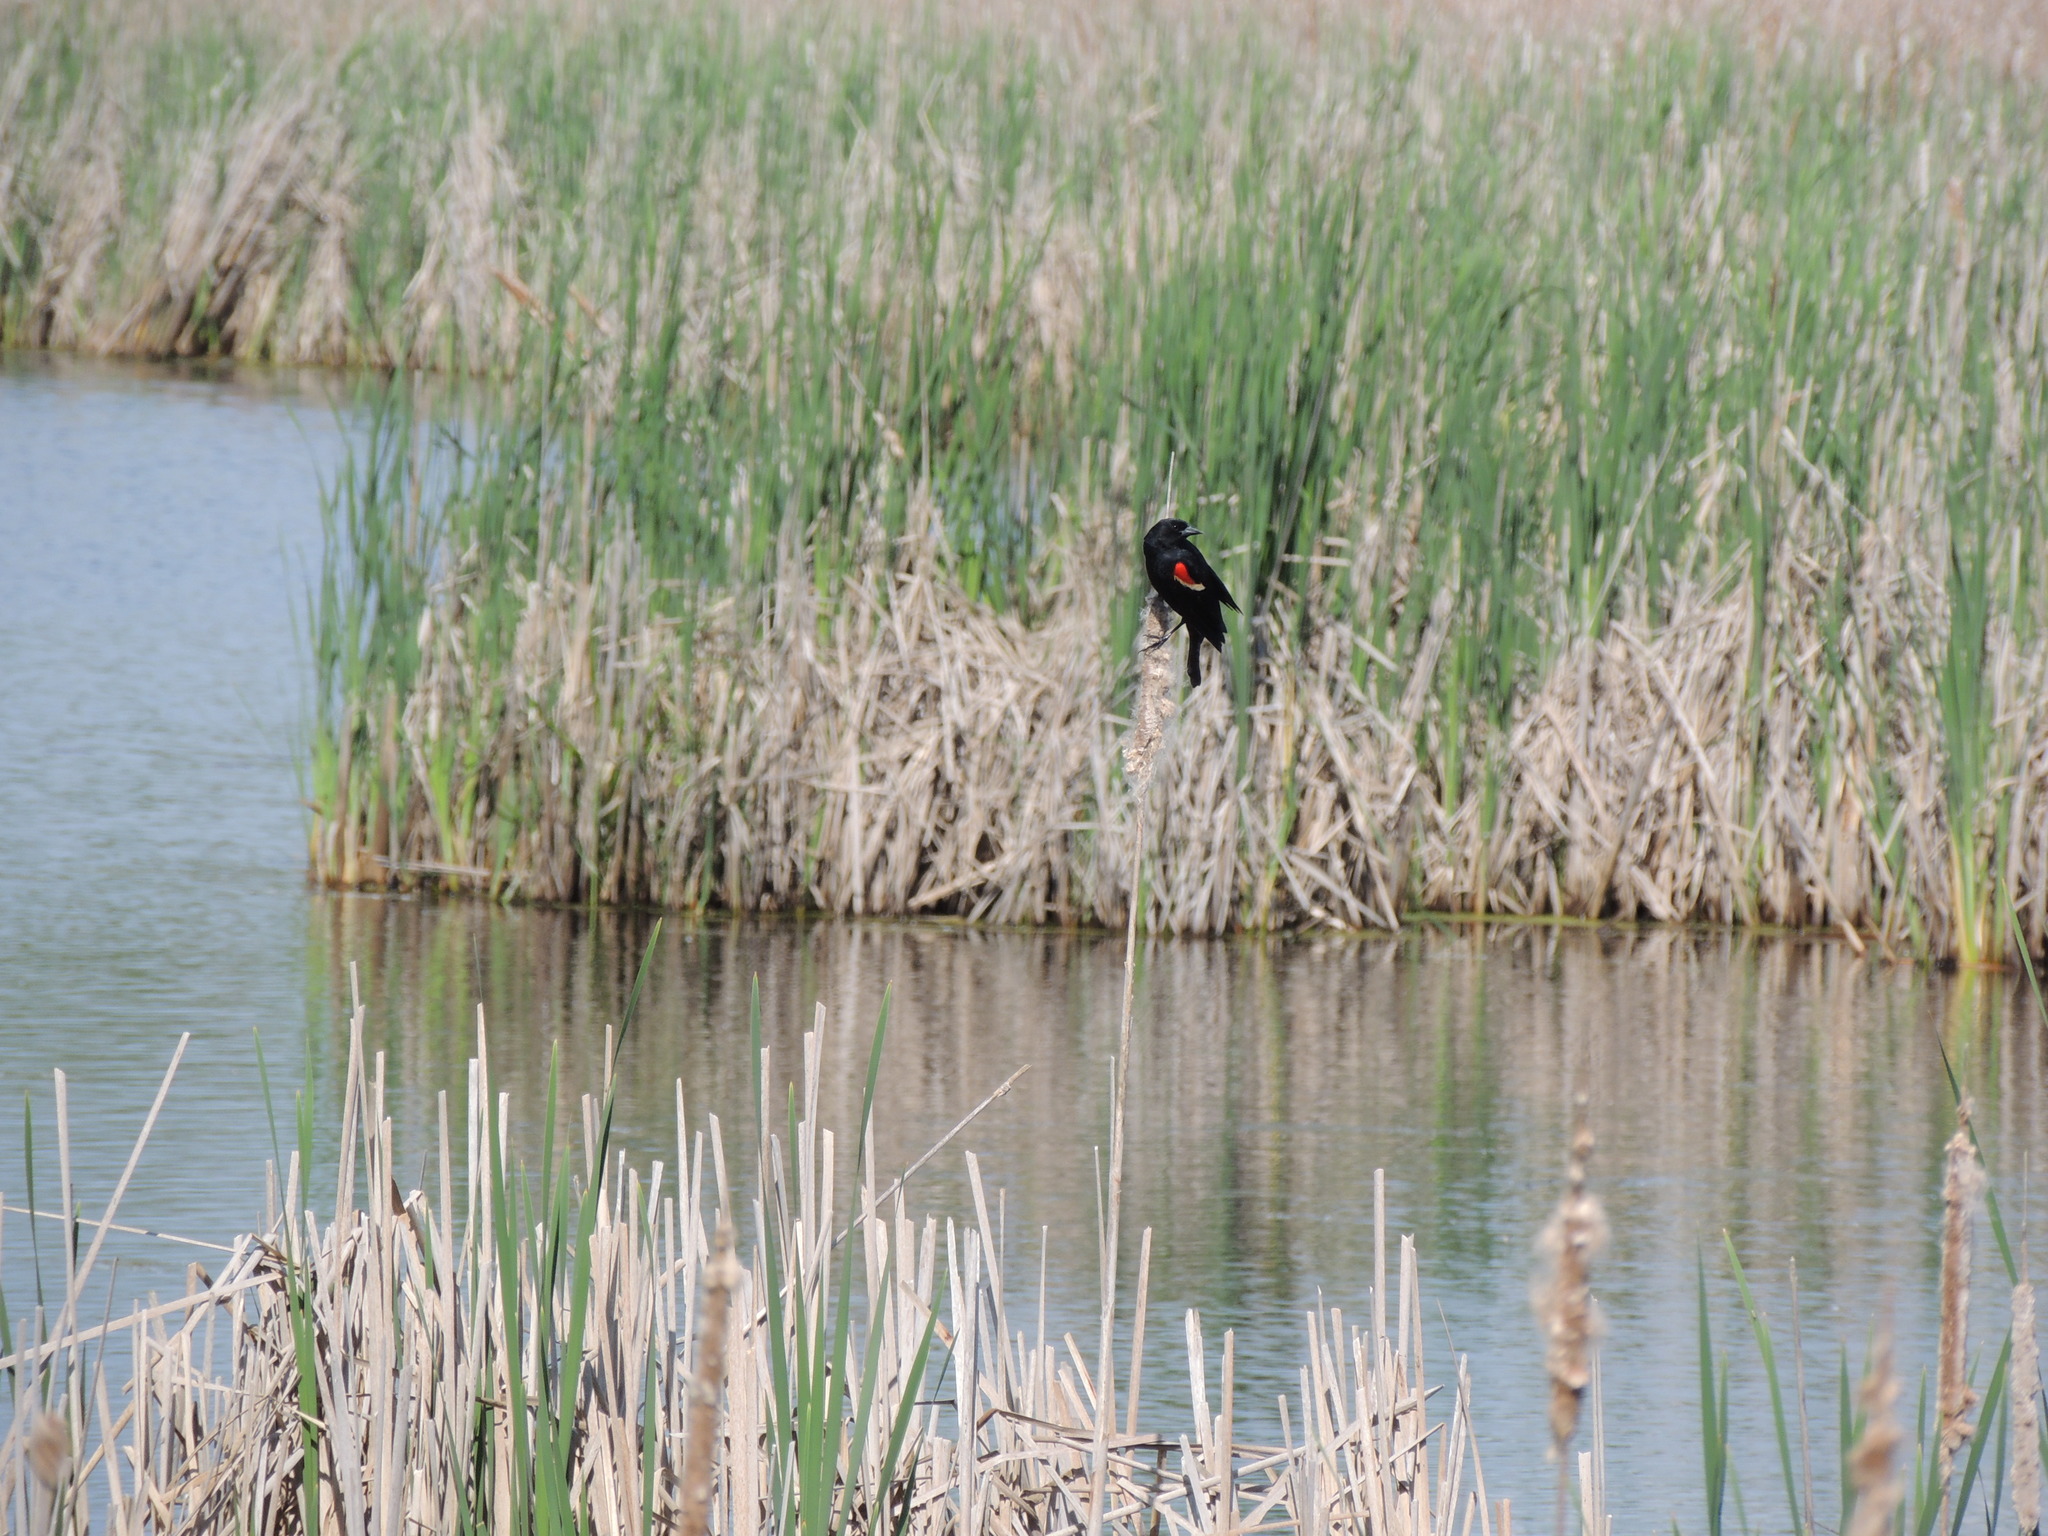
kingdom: Animalia
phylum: Chordata
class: Aves
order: Passeriformes
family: Icteridae
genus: Agelaius
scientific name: Agelaius phoeniceus
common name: Red-winged blackbird
